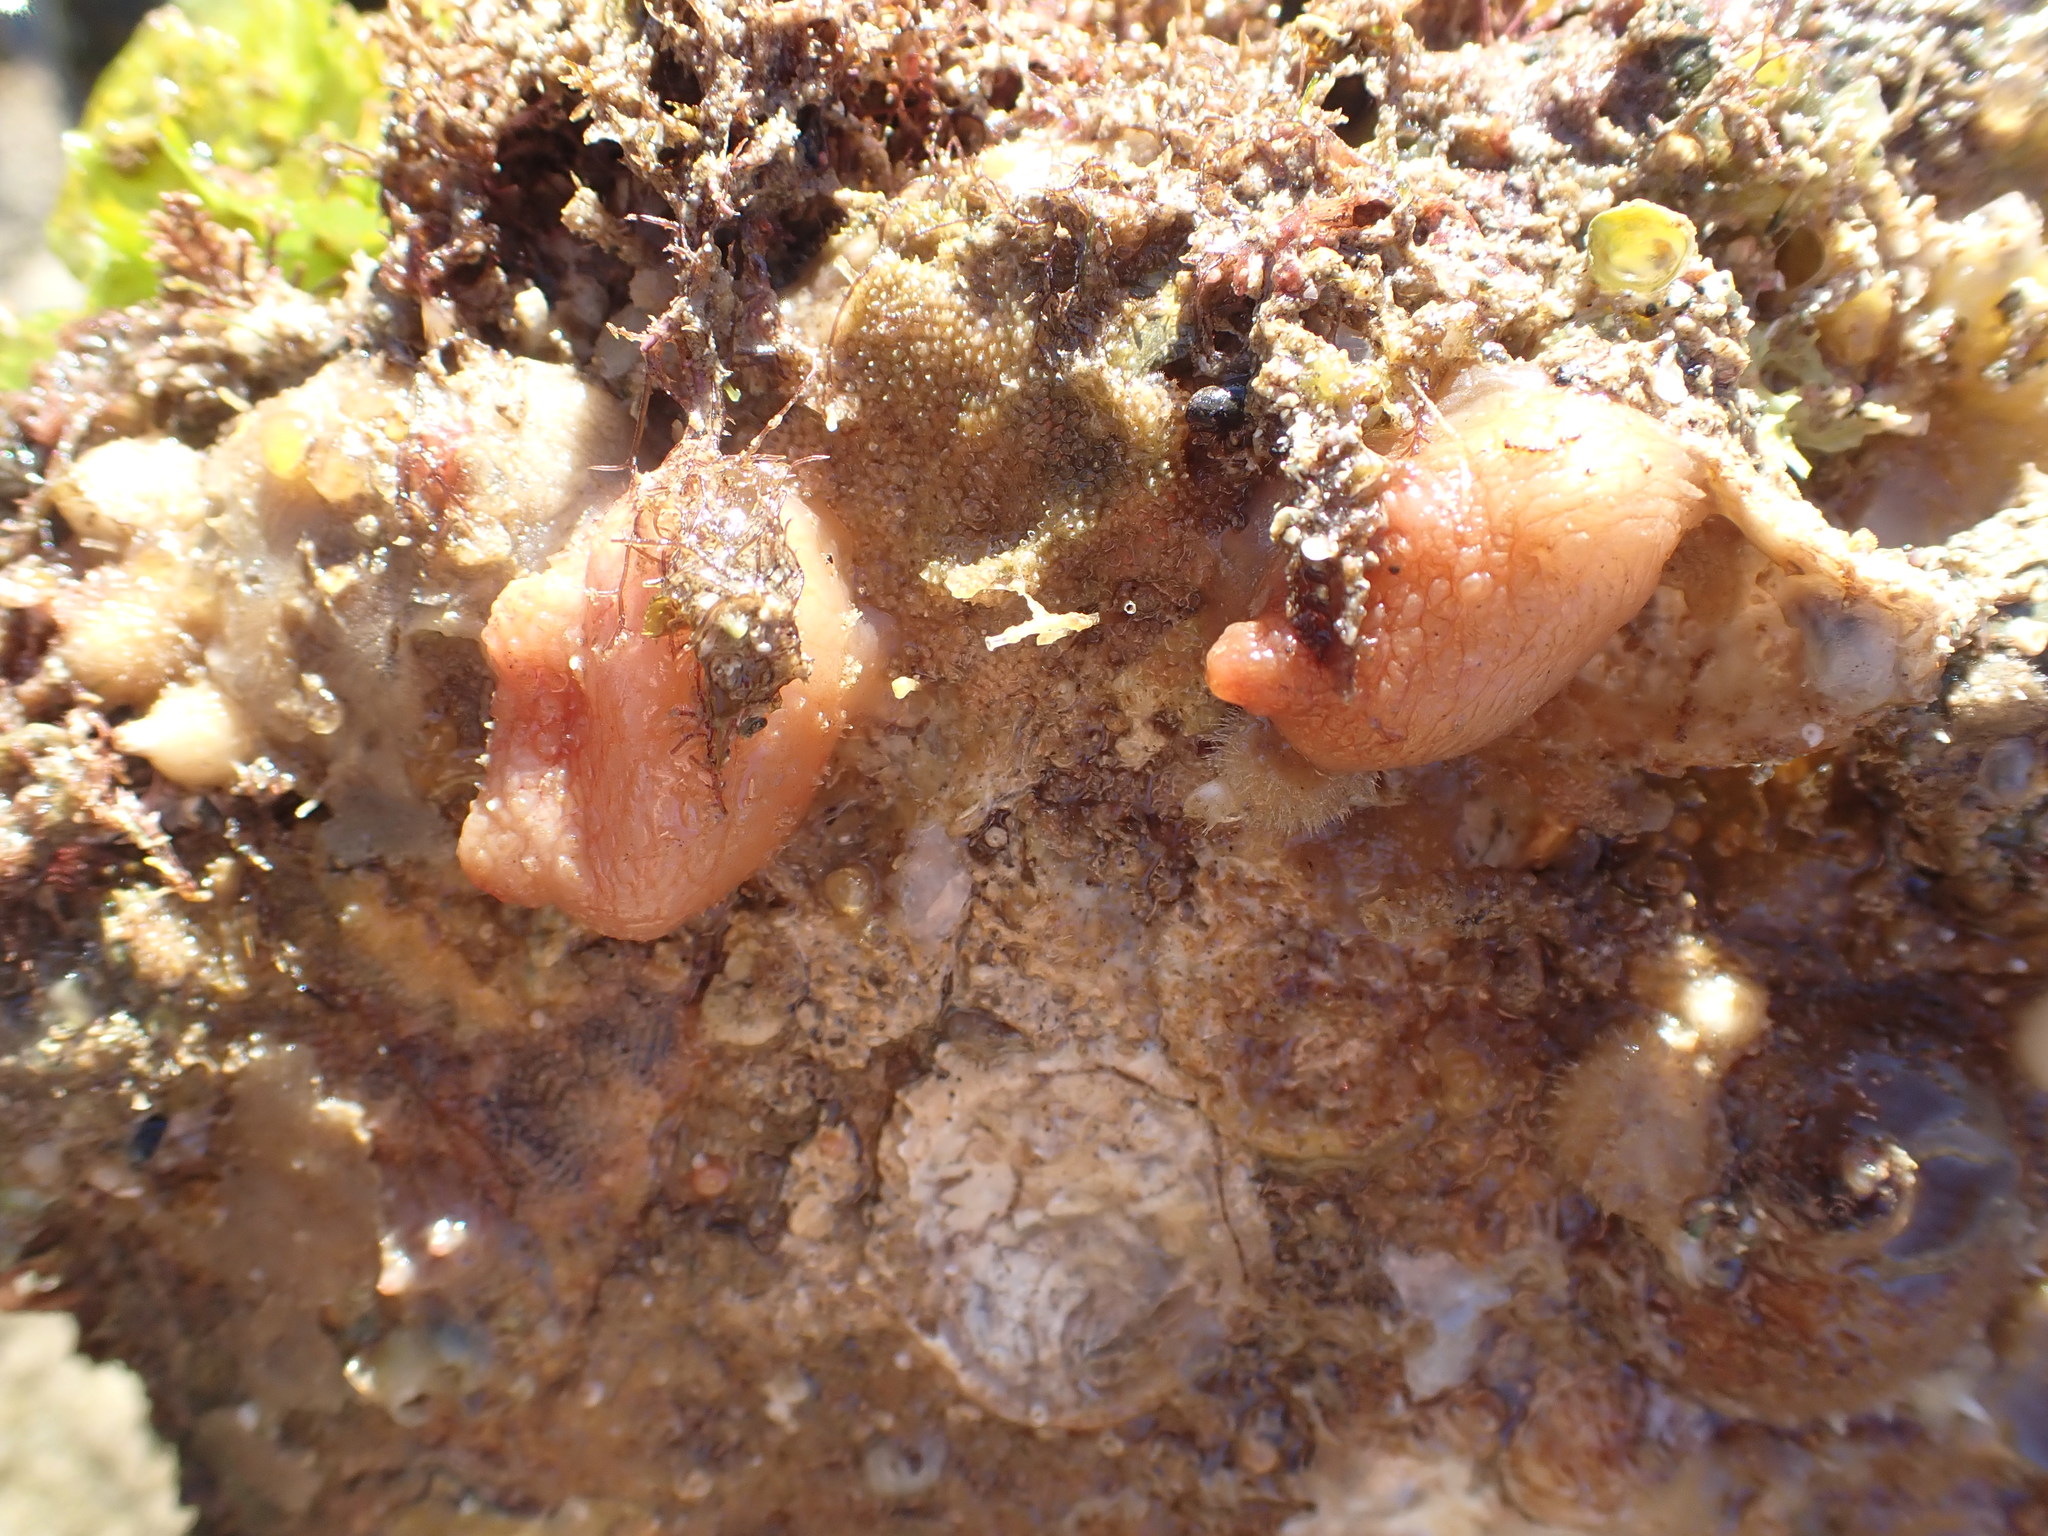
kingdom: Animalia
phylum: Chordata
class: Ascidiacea
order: Phlebobranchia
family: Corellidae
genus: Corella
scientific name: Corella eumyota
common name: Orange-tipped sea squirt
